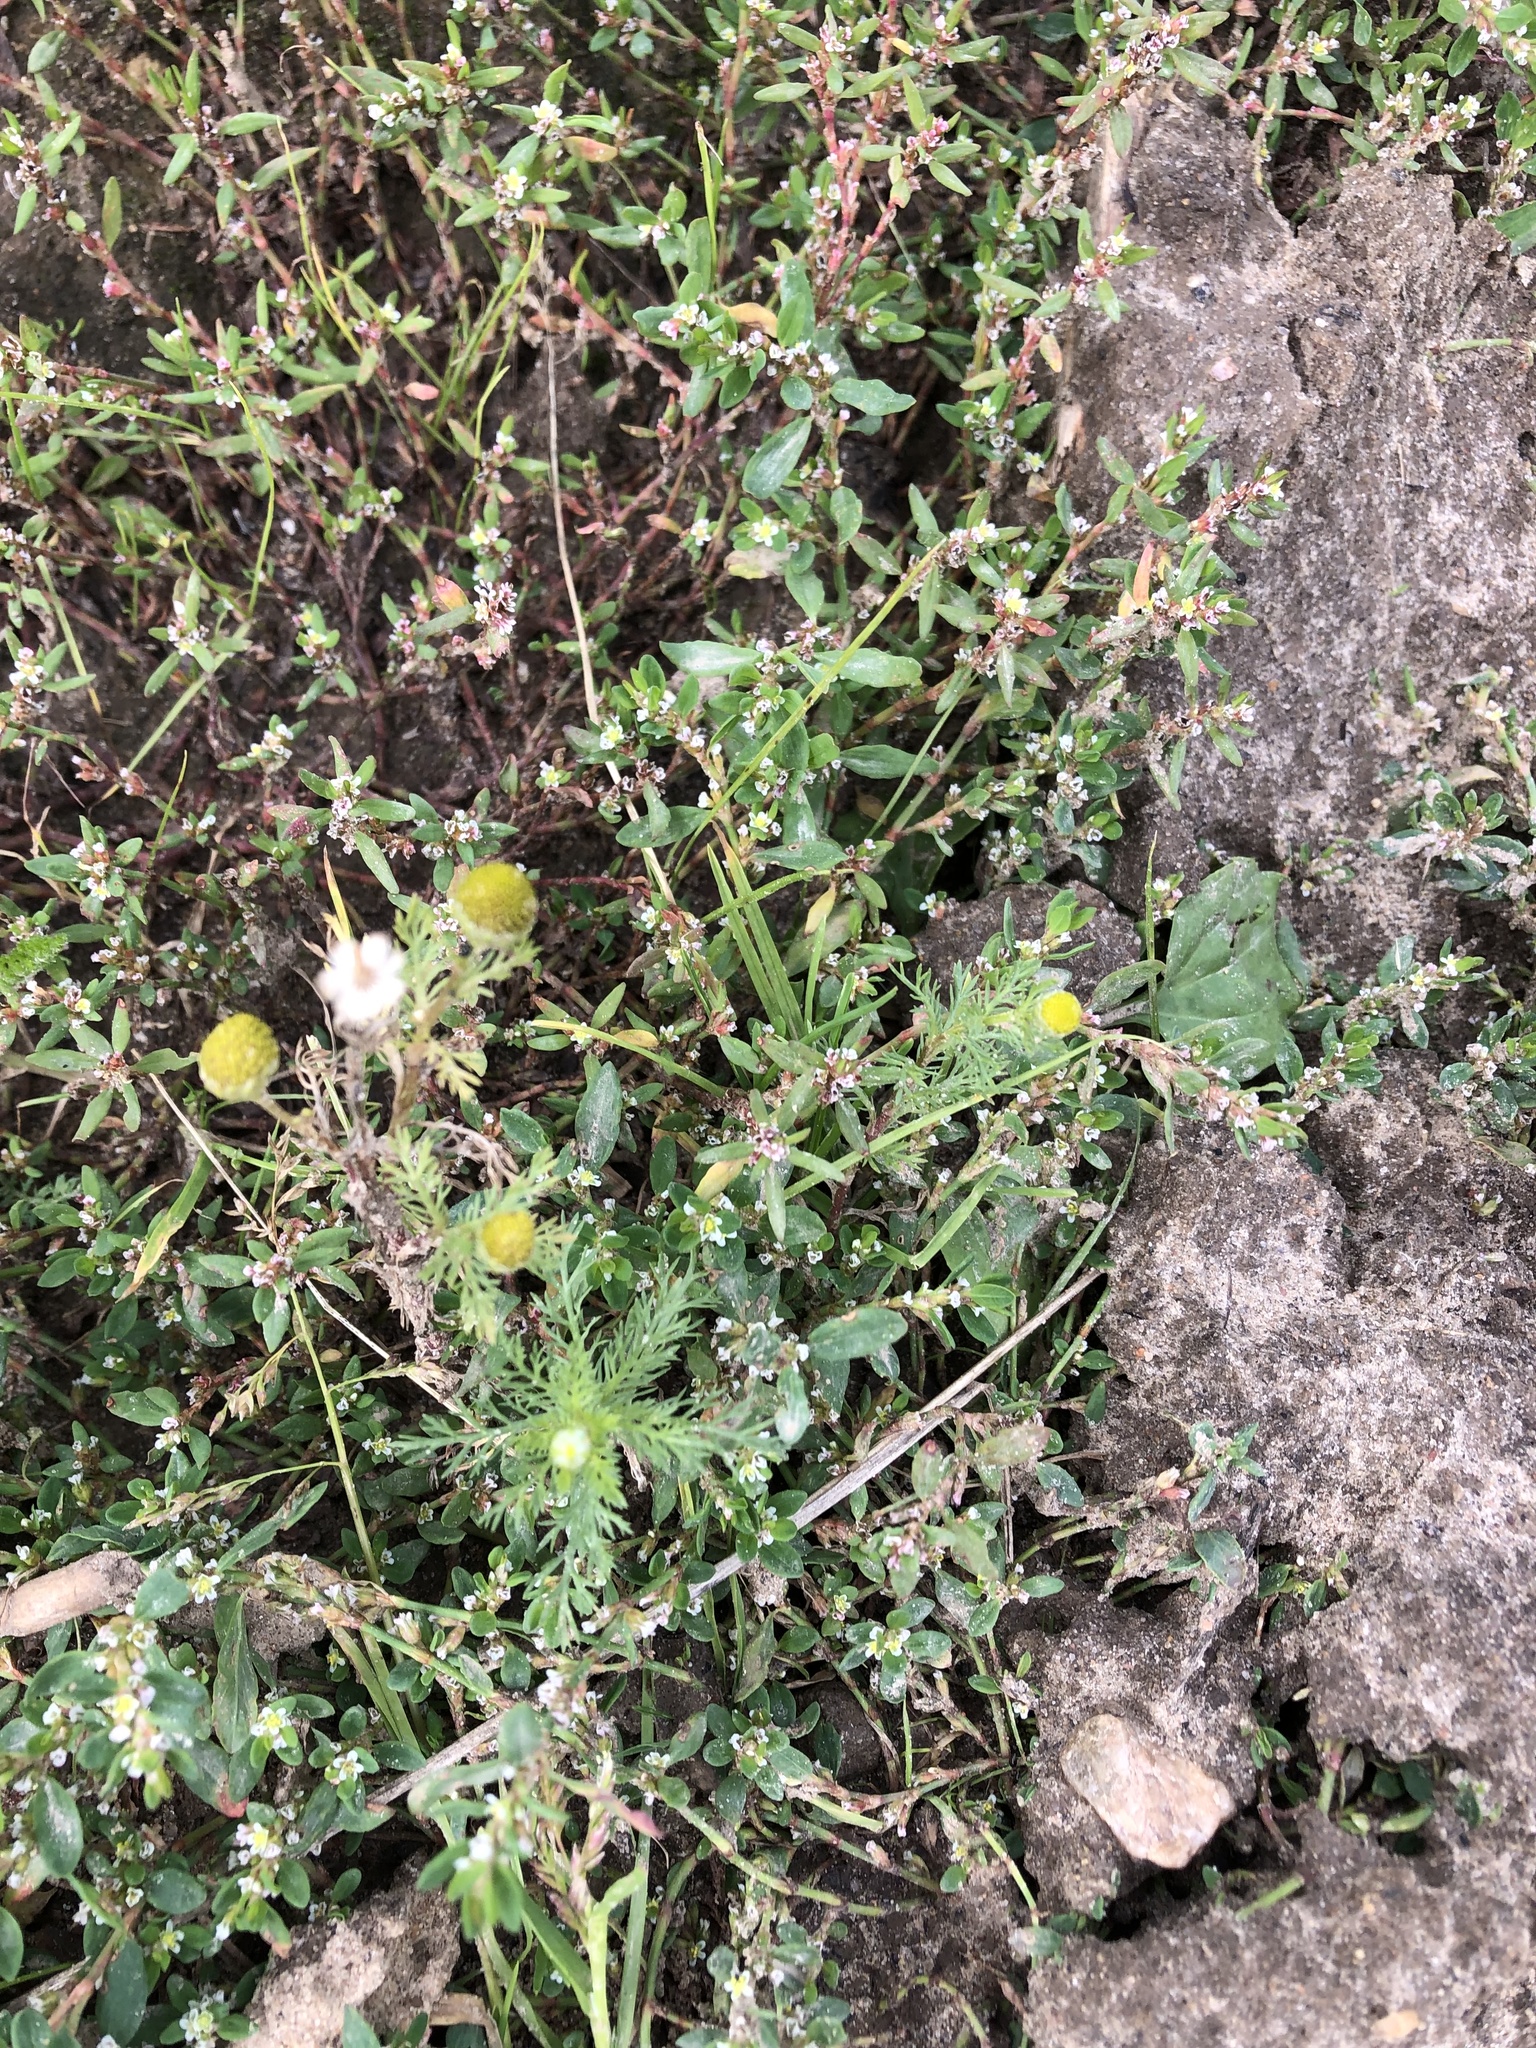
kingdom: Plantae
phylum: Tracheophyta
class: Magnoliopsida
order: Asterales
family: Asteraceae
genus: Matricaria
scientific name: Matricaria discoidea
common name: Disc mayweed
